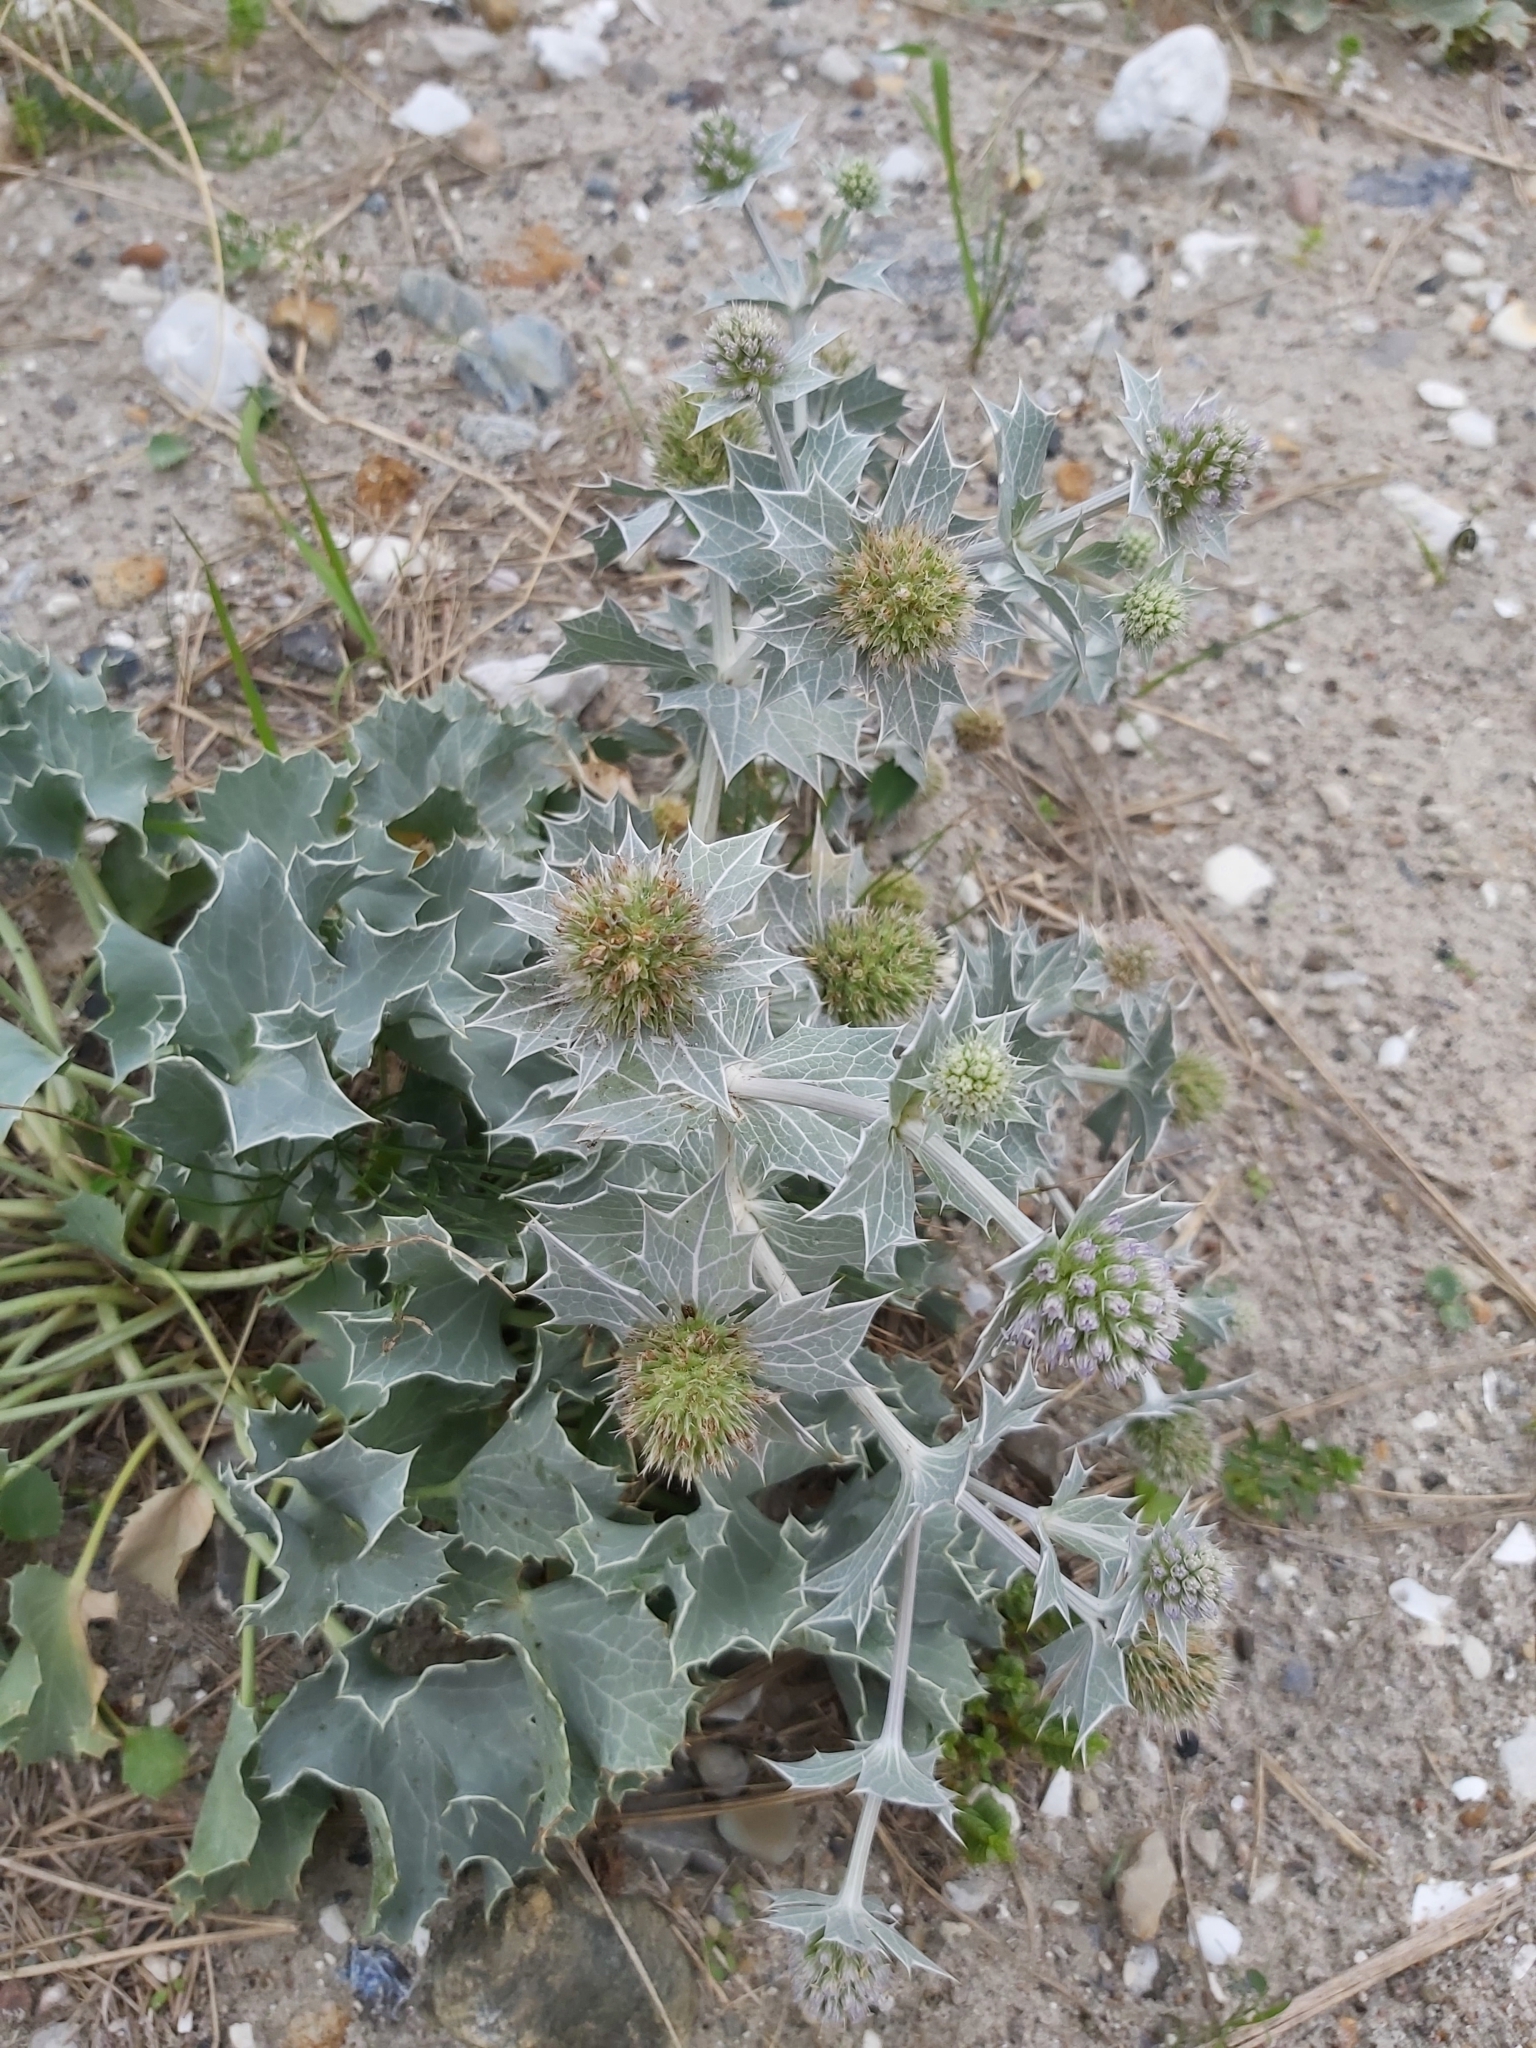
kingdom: Plantae
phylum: Tracheophyta
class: Magnoliopsida
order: Apiales
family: Apiaceae
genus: Eryngium
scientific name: Eryngium maritimum
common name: Sea-holly
